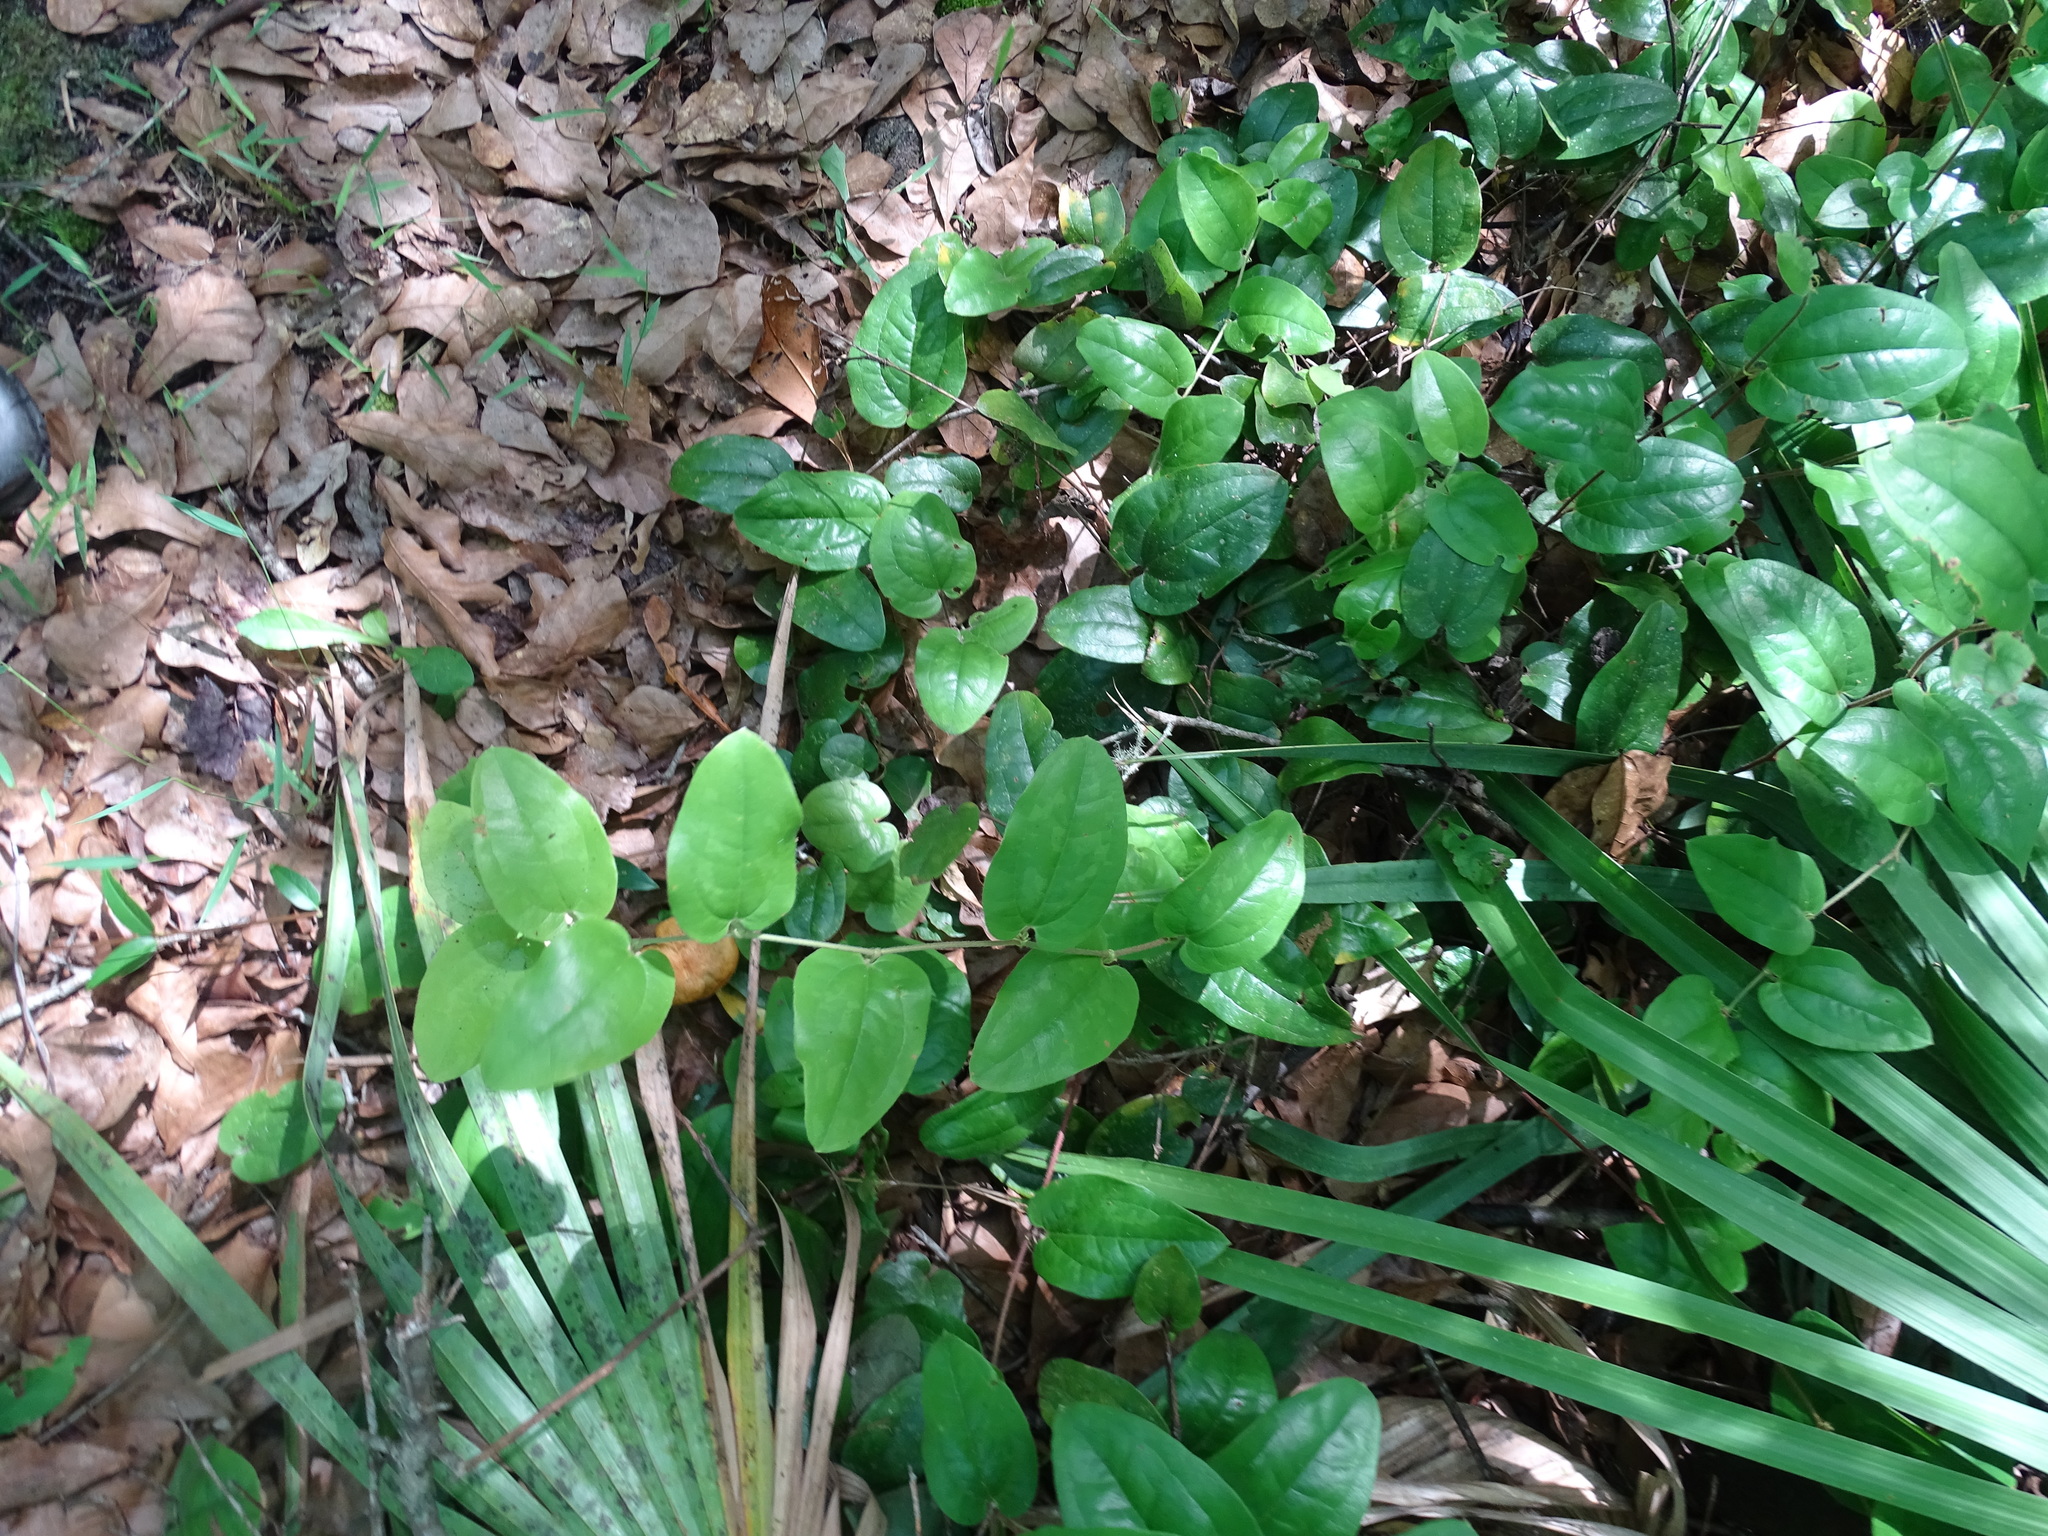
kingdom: Plantae
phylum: Tracheophyta
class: Liliopsida
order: Liliales
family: Smilacaceae
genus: Smilax
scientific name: Smilax pumila
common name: Sarsaparilla-vine
